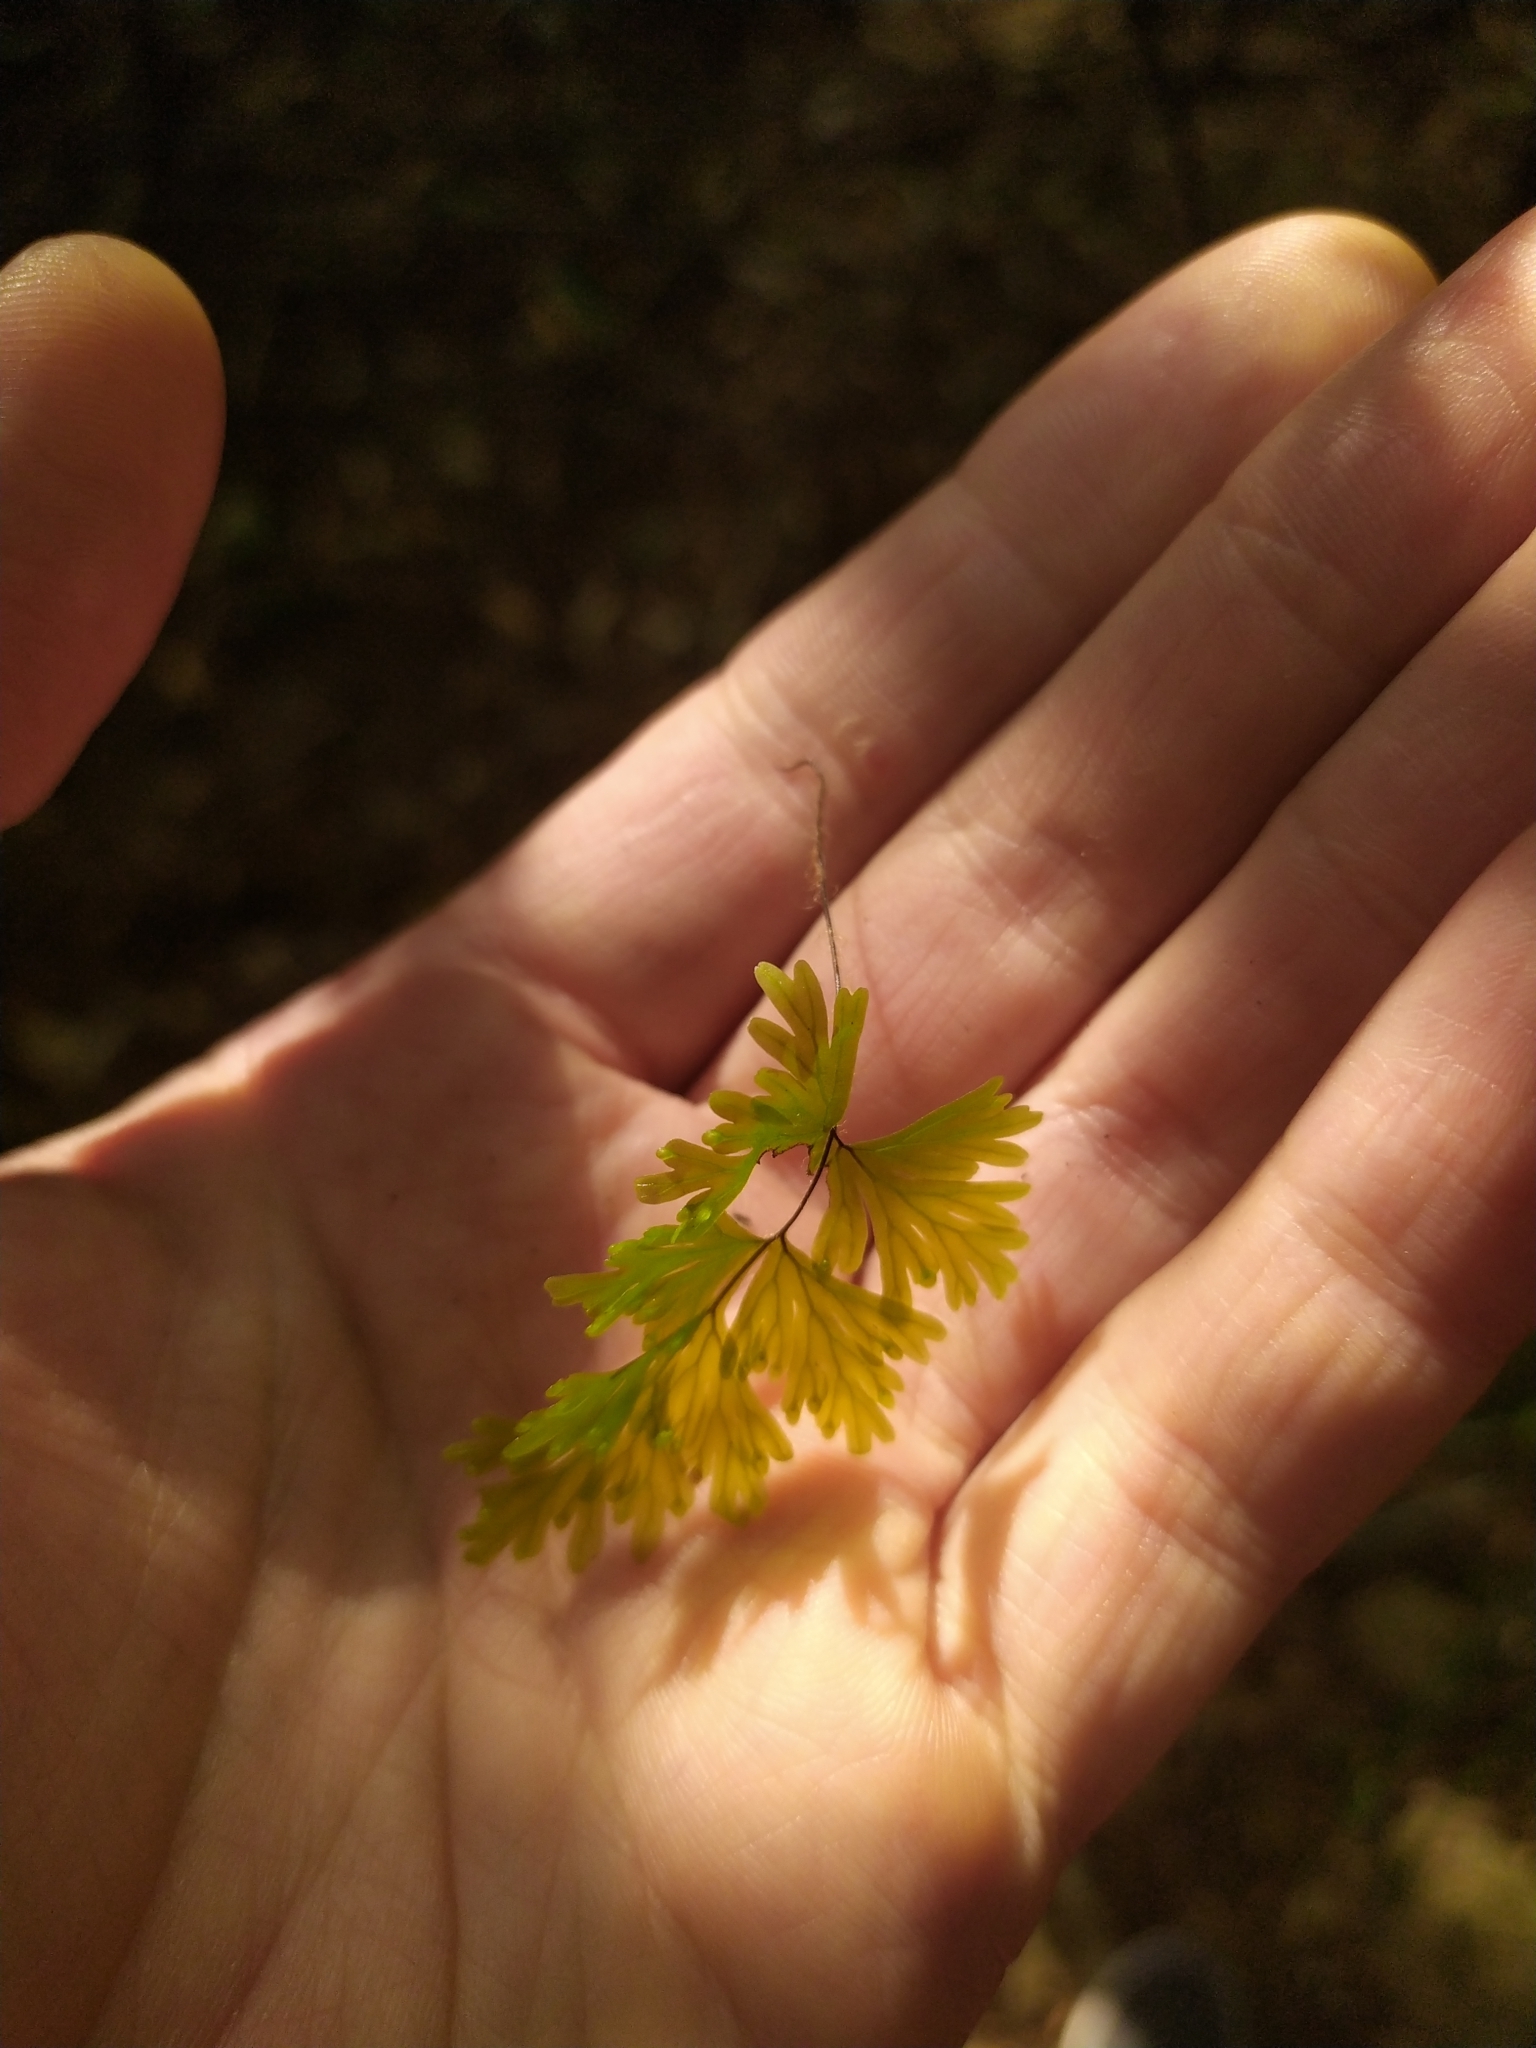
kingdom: Plantae
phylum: Tracheophyta
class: Polypodiopsida
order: Hymenophyllales
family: Hymenophyllaceae
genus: Hymenophyllum
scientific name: Hymenophyllum flabellatum
